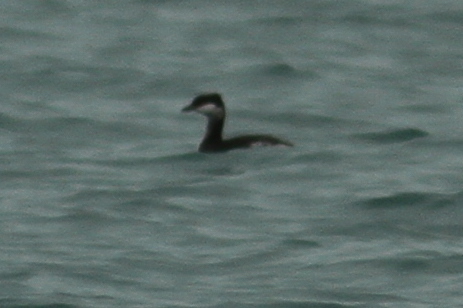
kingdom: Animalia
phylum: Chordata
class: Aves
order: Podicipediformes
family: Podicipedidae
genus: Podiceps
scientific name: Podiceps auritus
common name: Horned grebe
